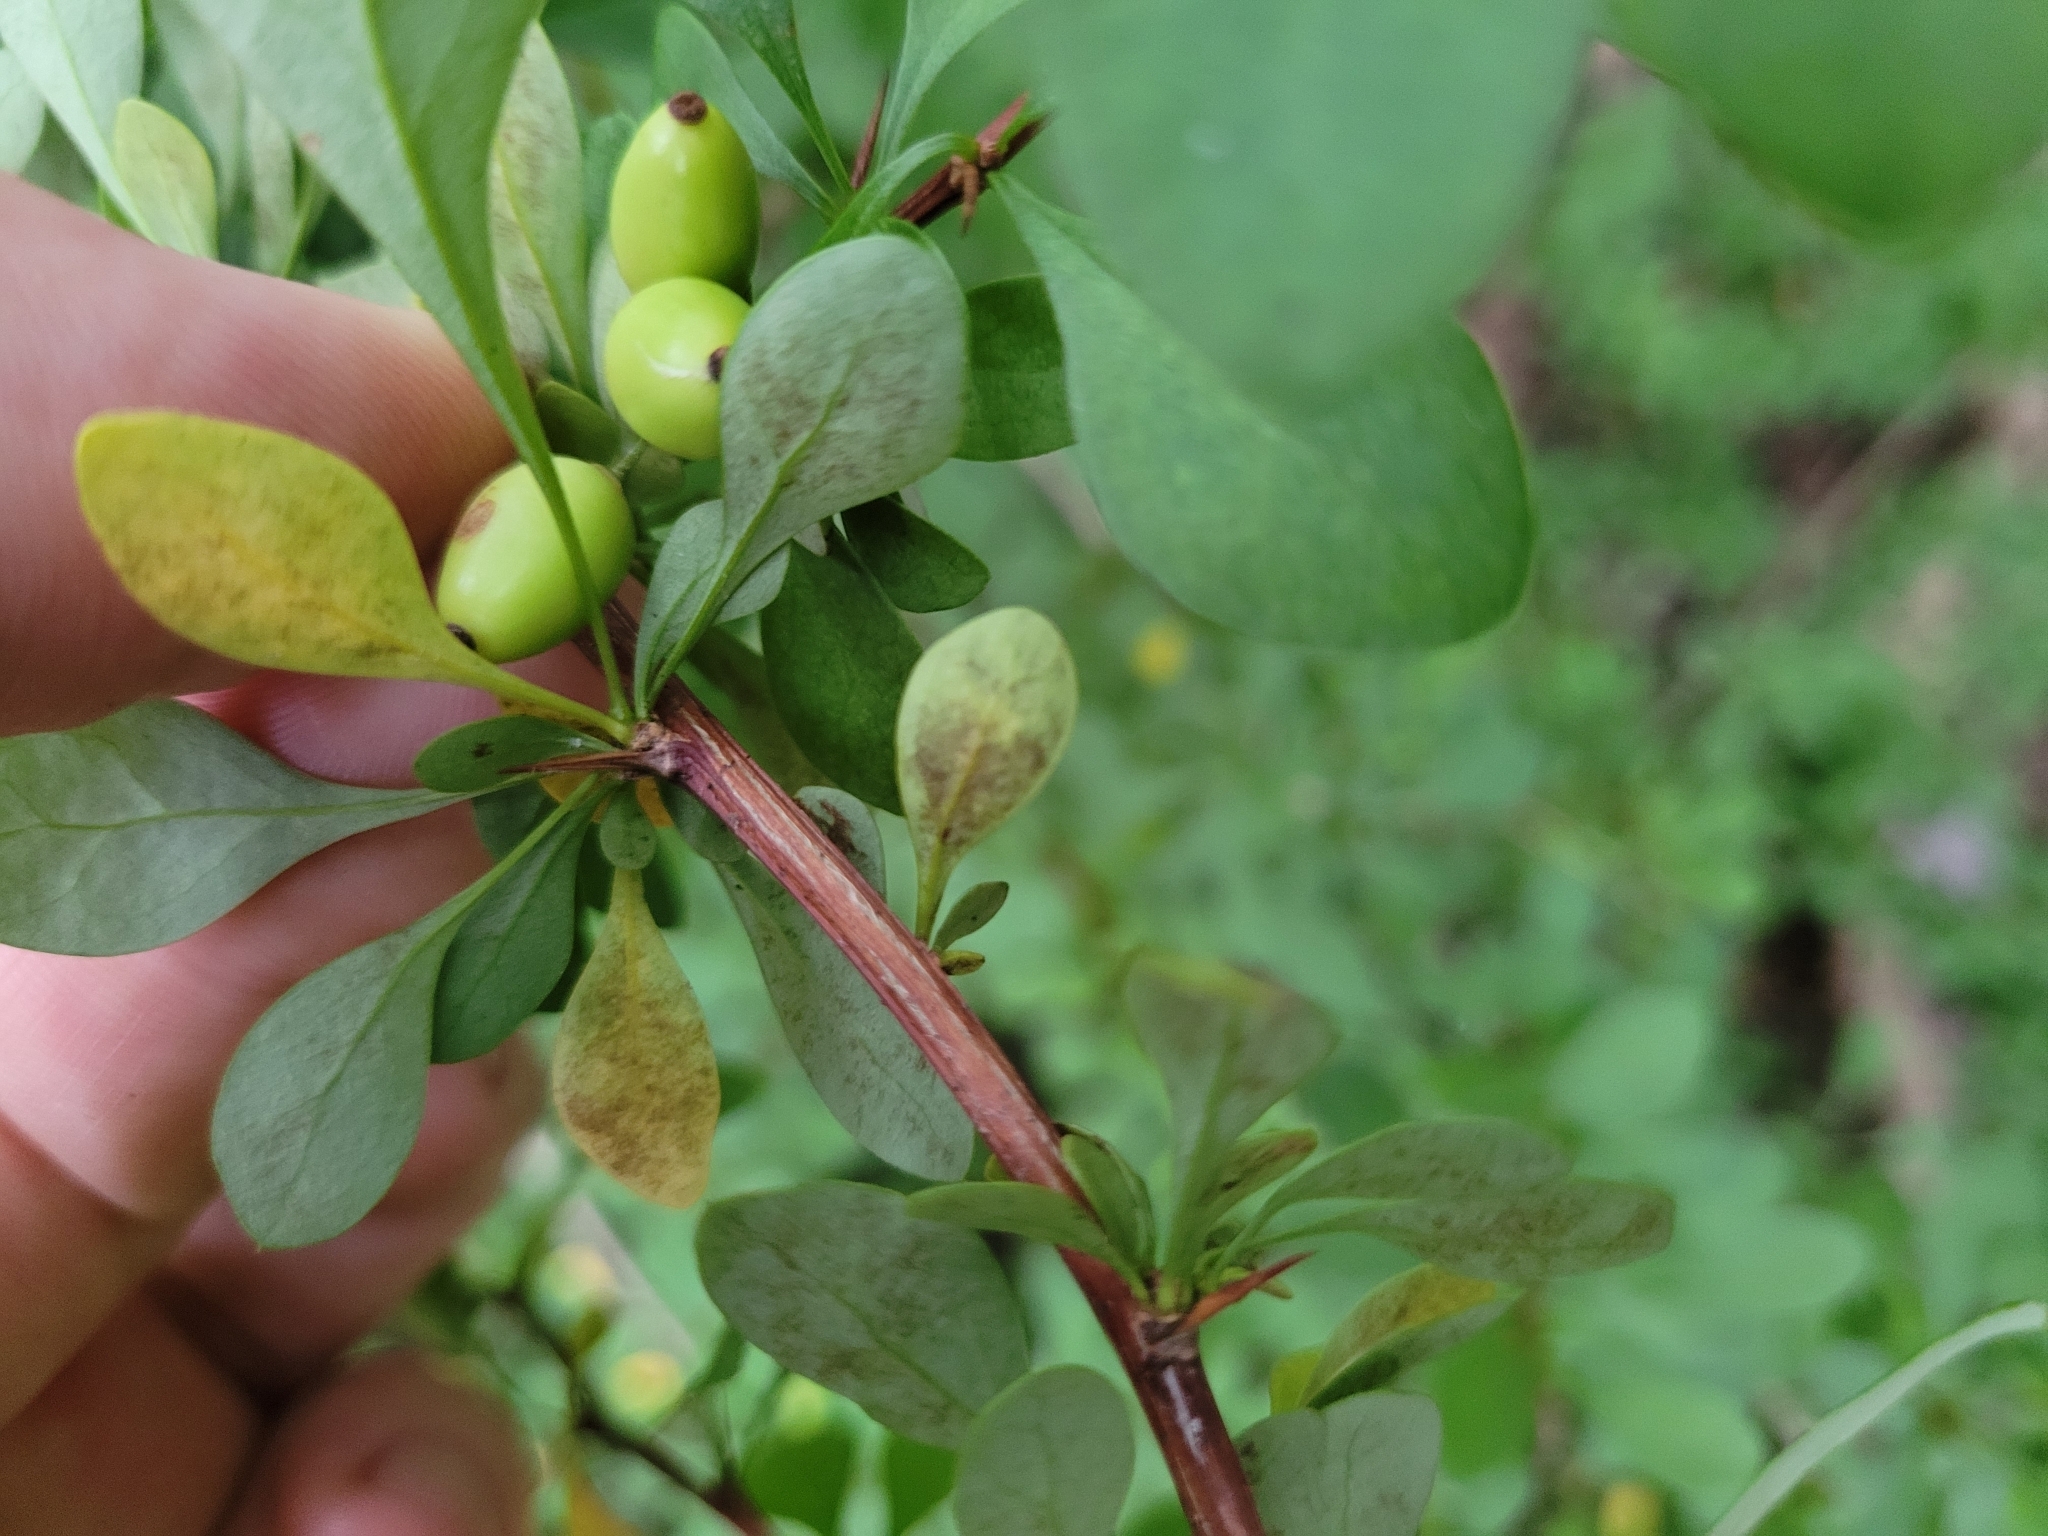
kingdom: Plantae
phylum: Tracheophyta
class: Magnoliopsida
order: Ranunculales
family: Berberidaceae
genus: Berberis
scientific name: Berberis thunbergii
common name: Japanese barberry
